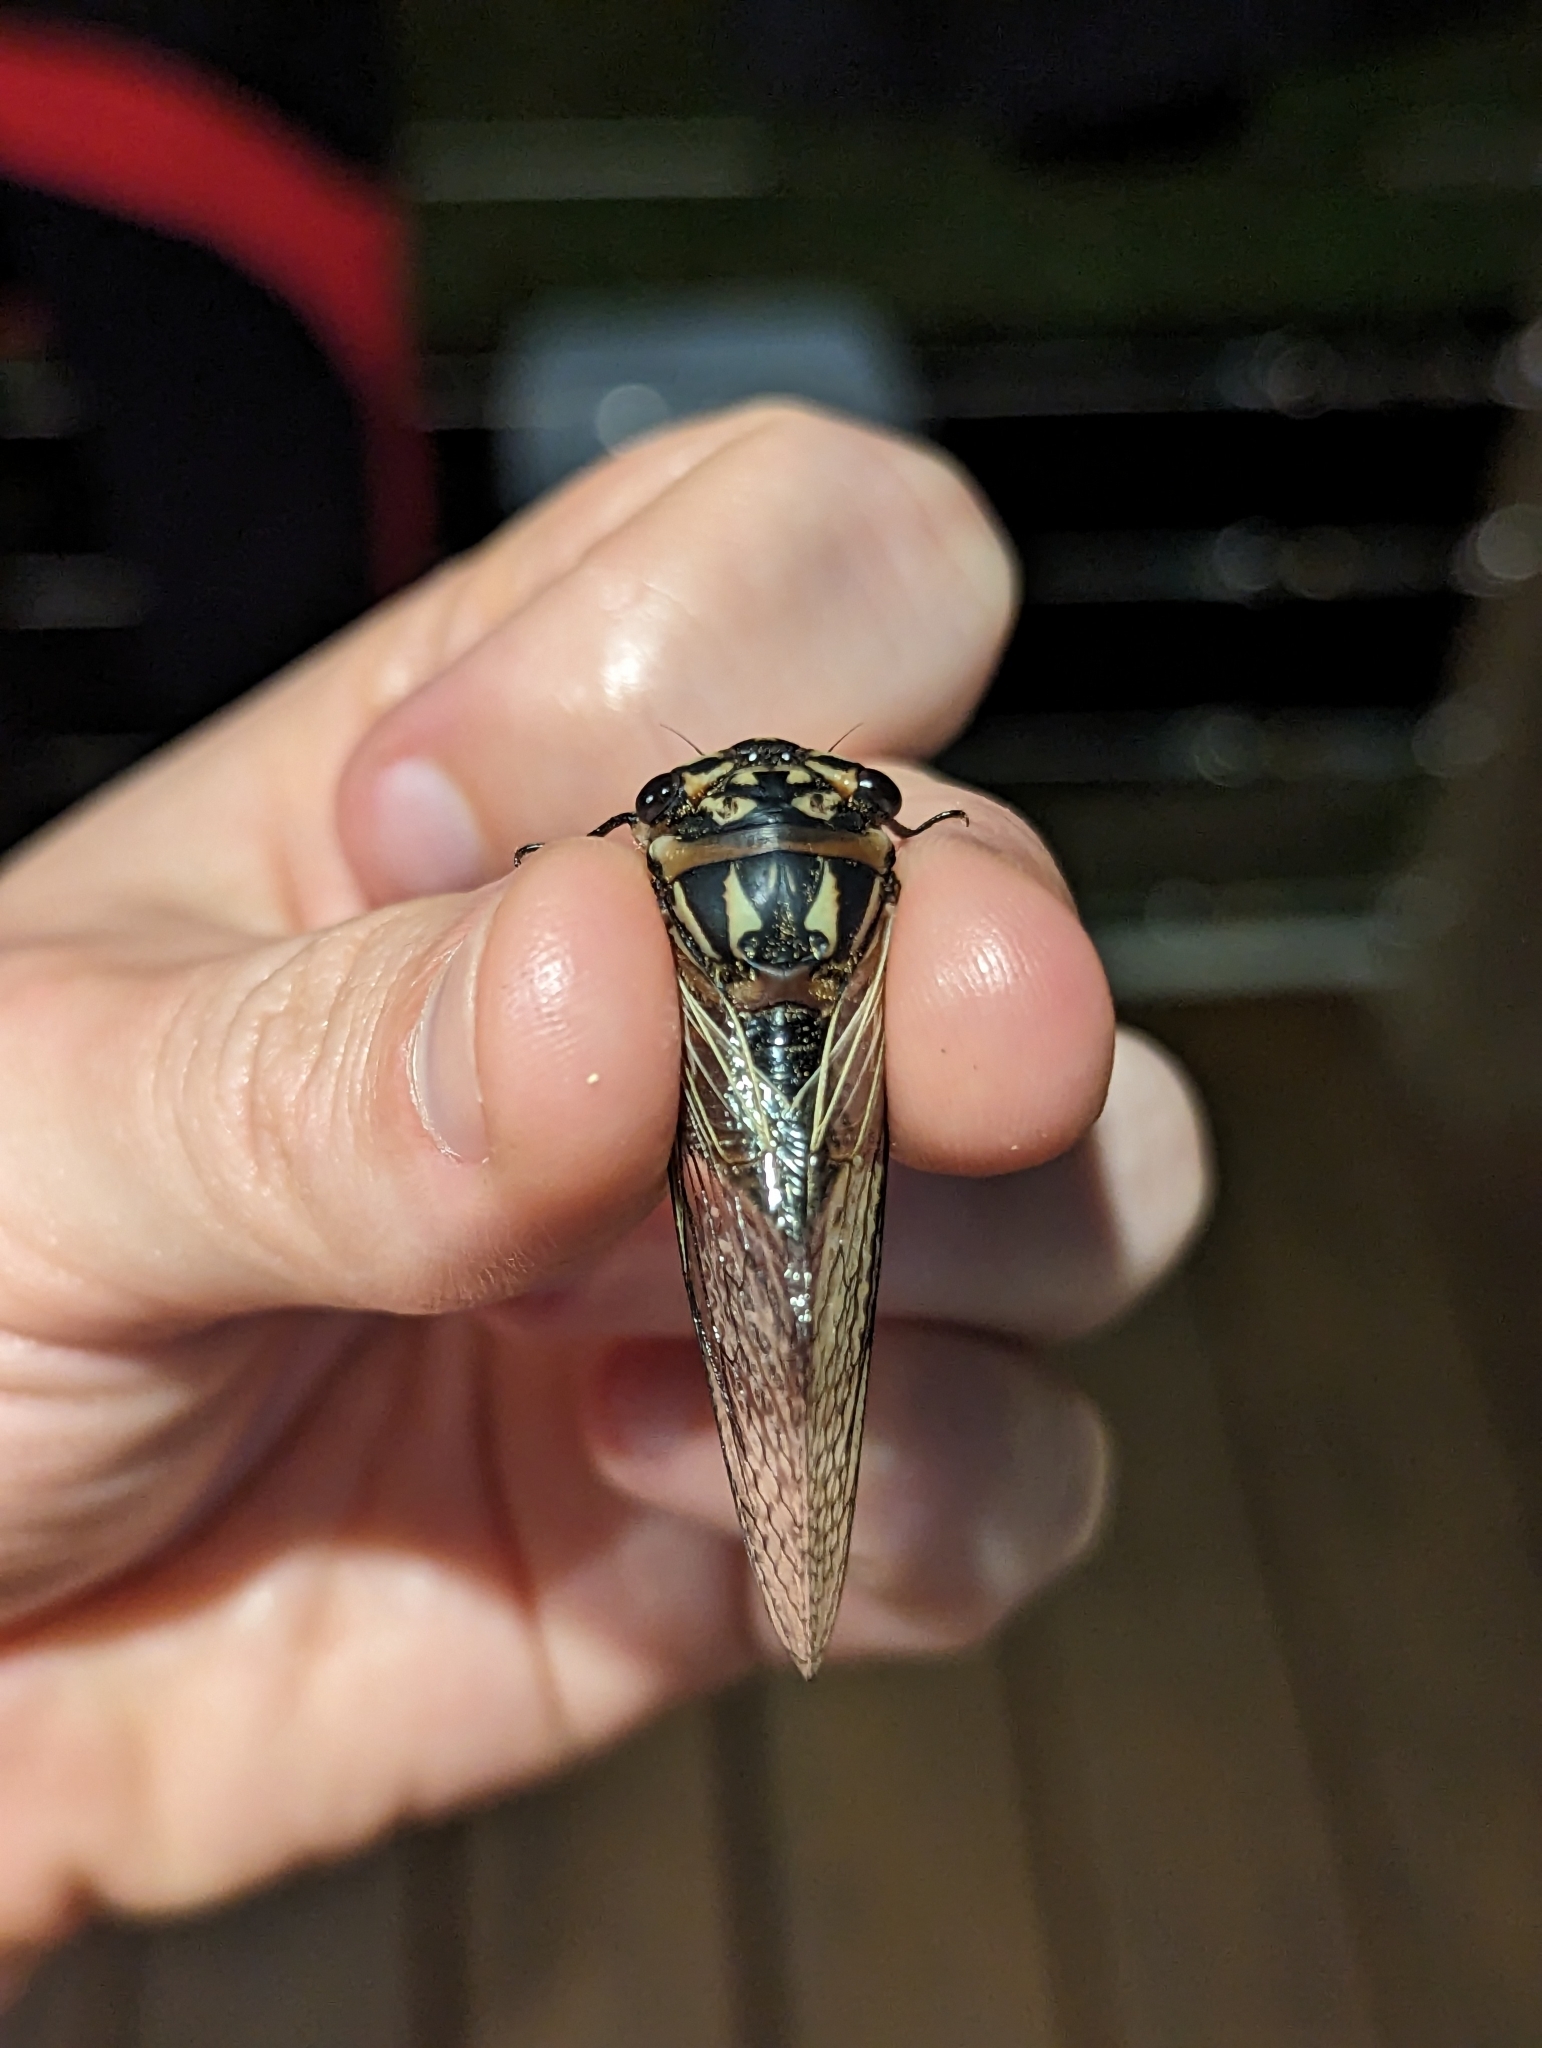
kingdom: Animalia
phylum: Arthropoda
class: Insecta
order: Hemiptera
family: Cicadidae
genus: Psaltoda
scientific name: Psaltoda insularis
